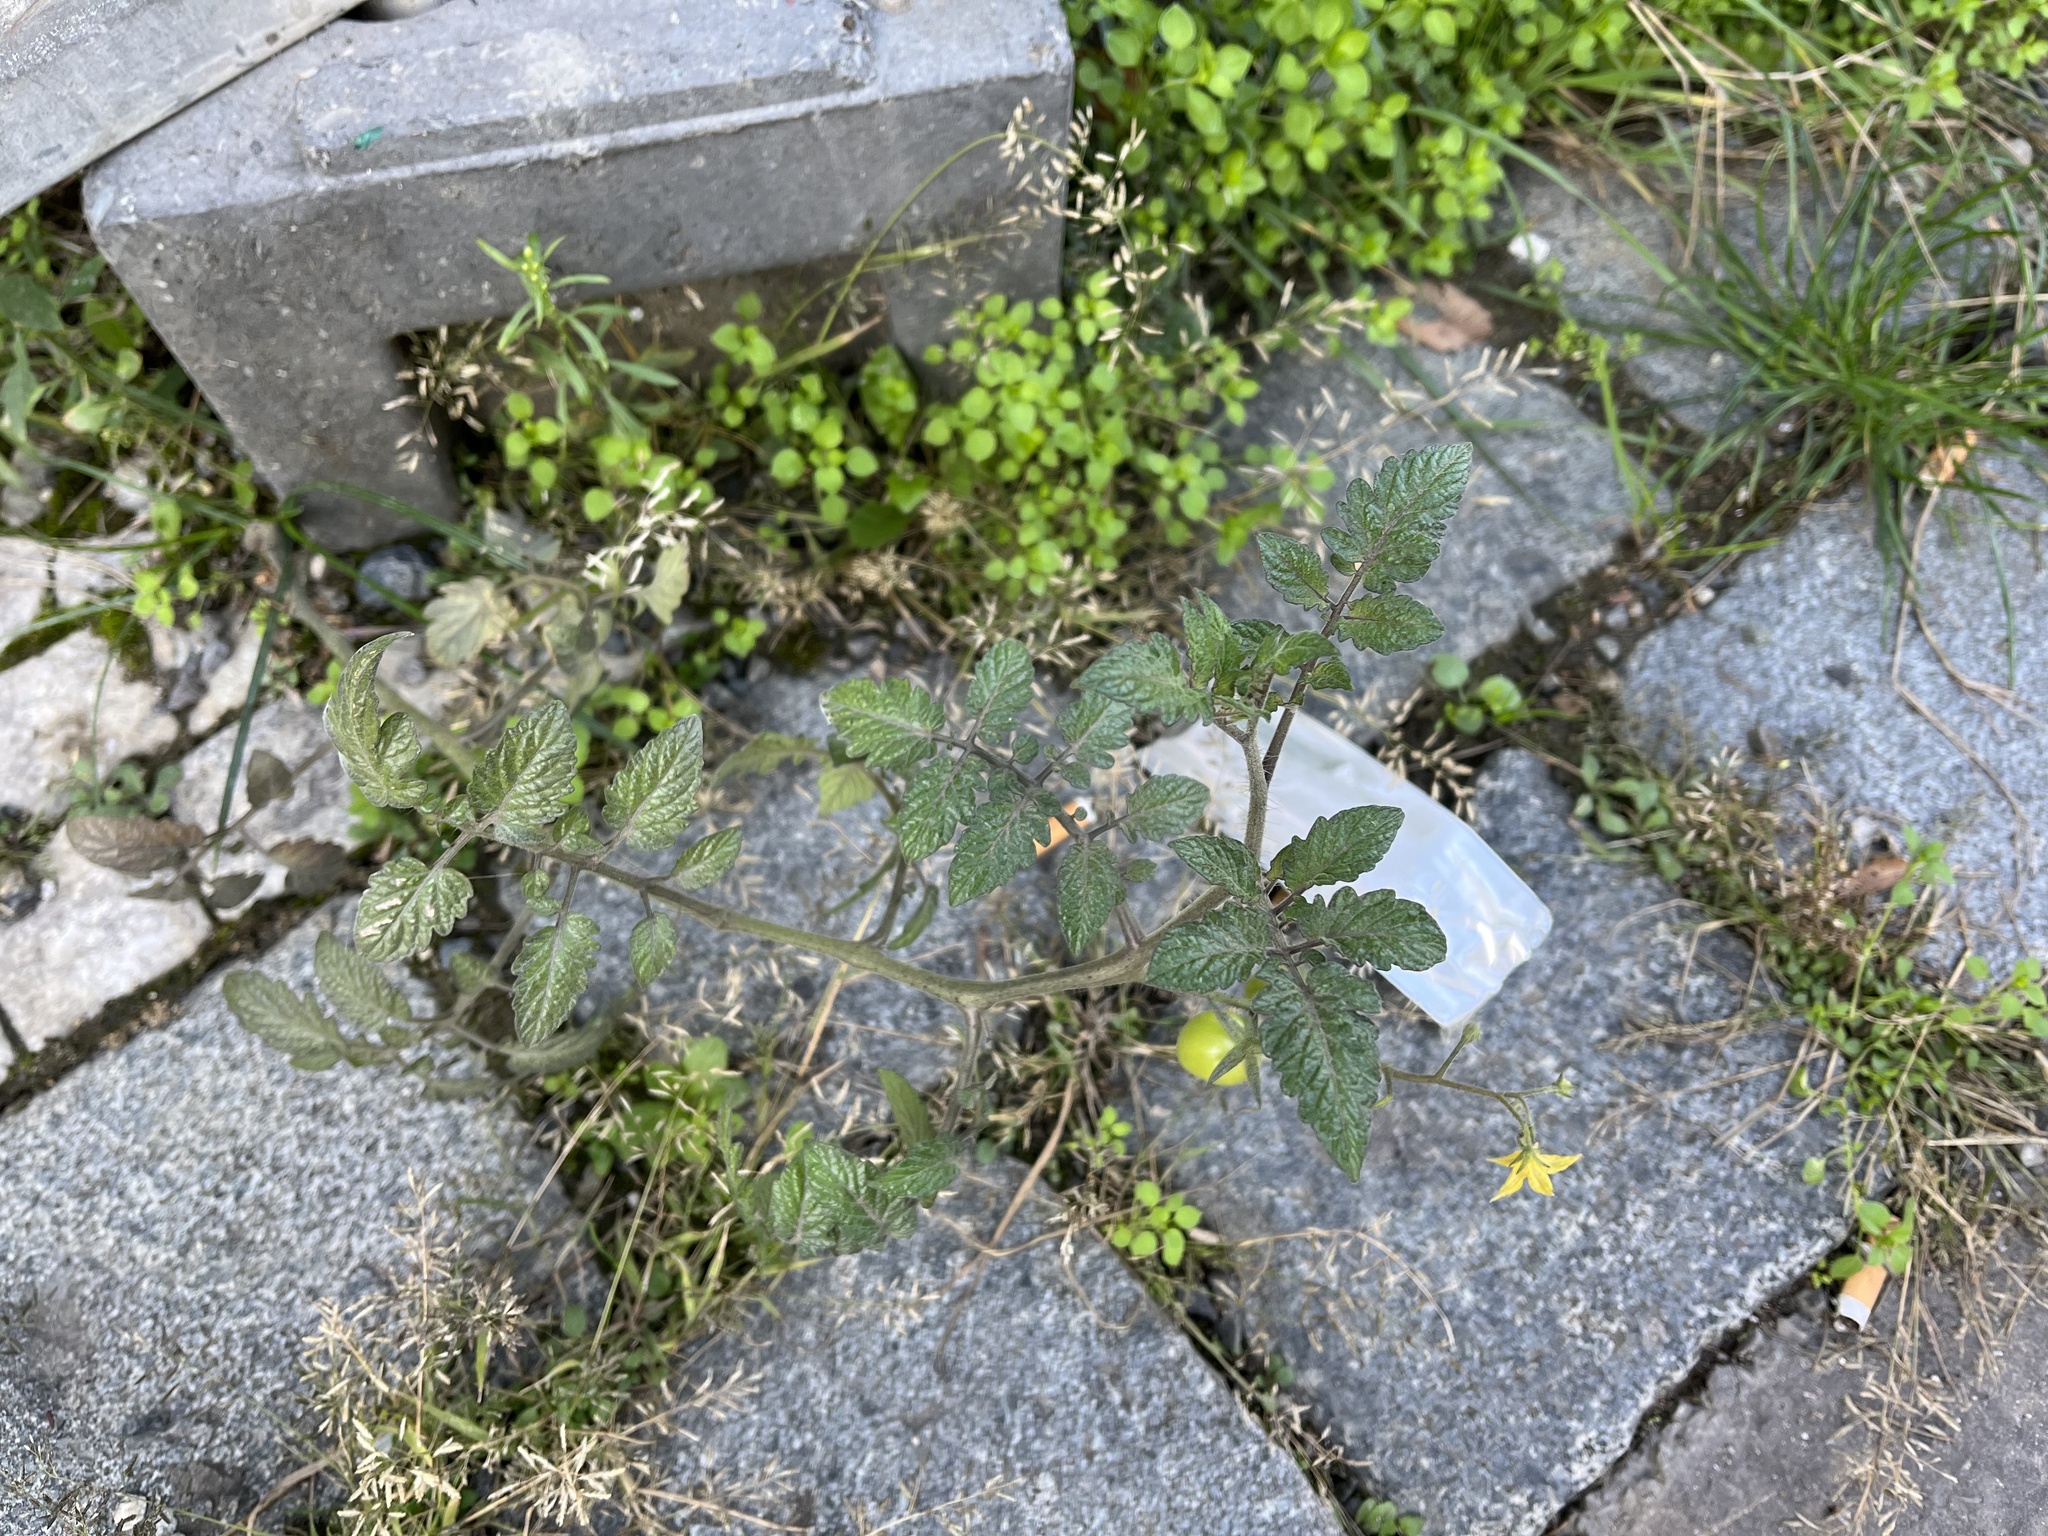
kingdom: Plantae
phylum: Tracheophyta
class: Magnoliopsida
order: Solanales
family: Solanaceae
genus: Solanum
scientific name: Solanum lycopersicum
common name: Garden tomato
